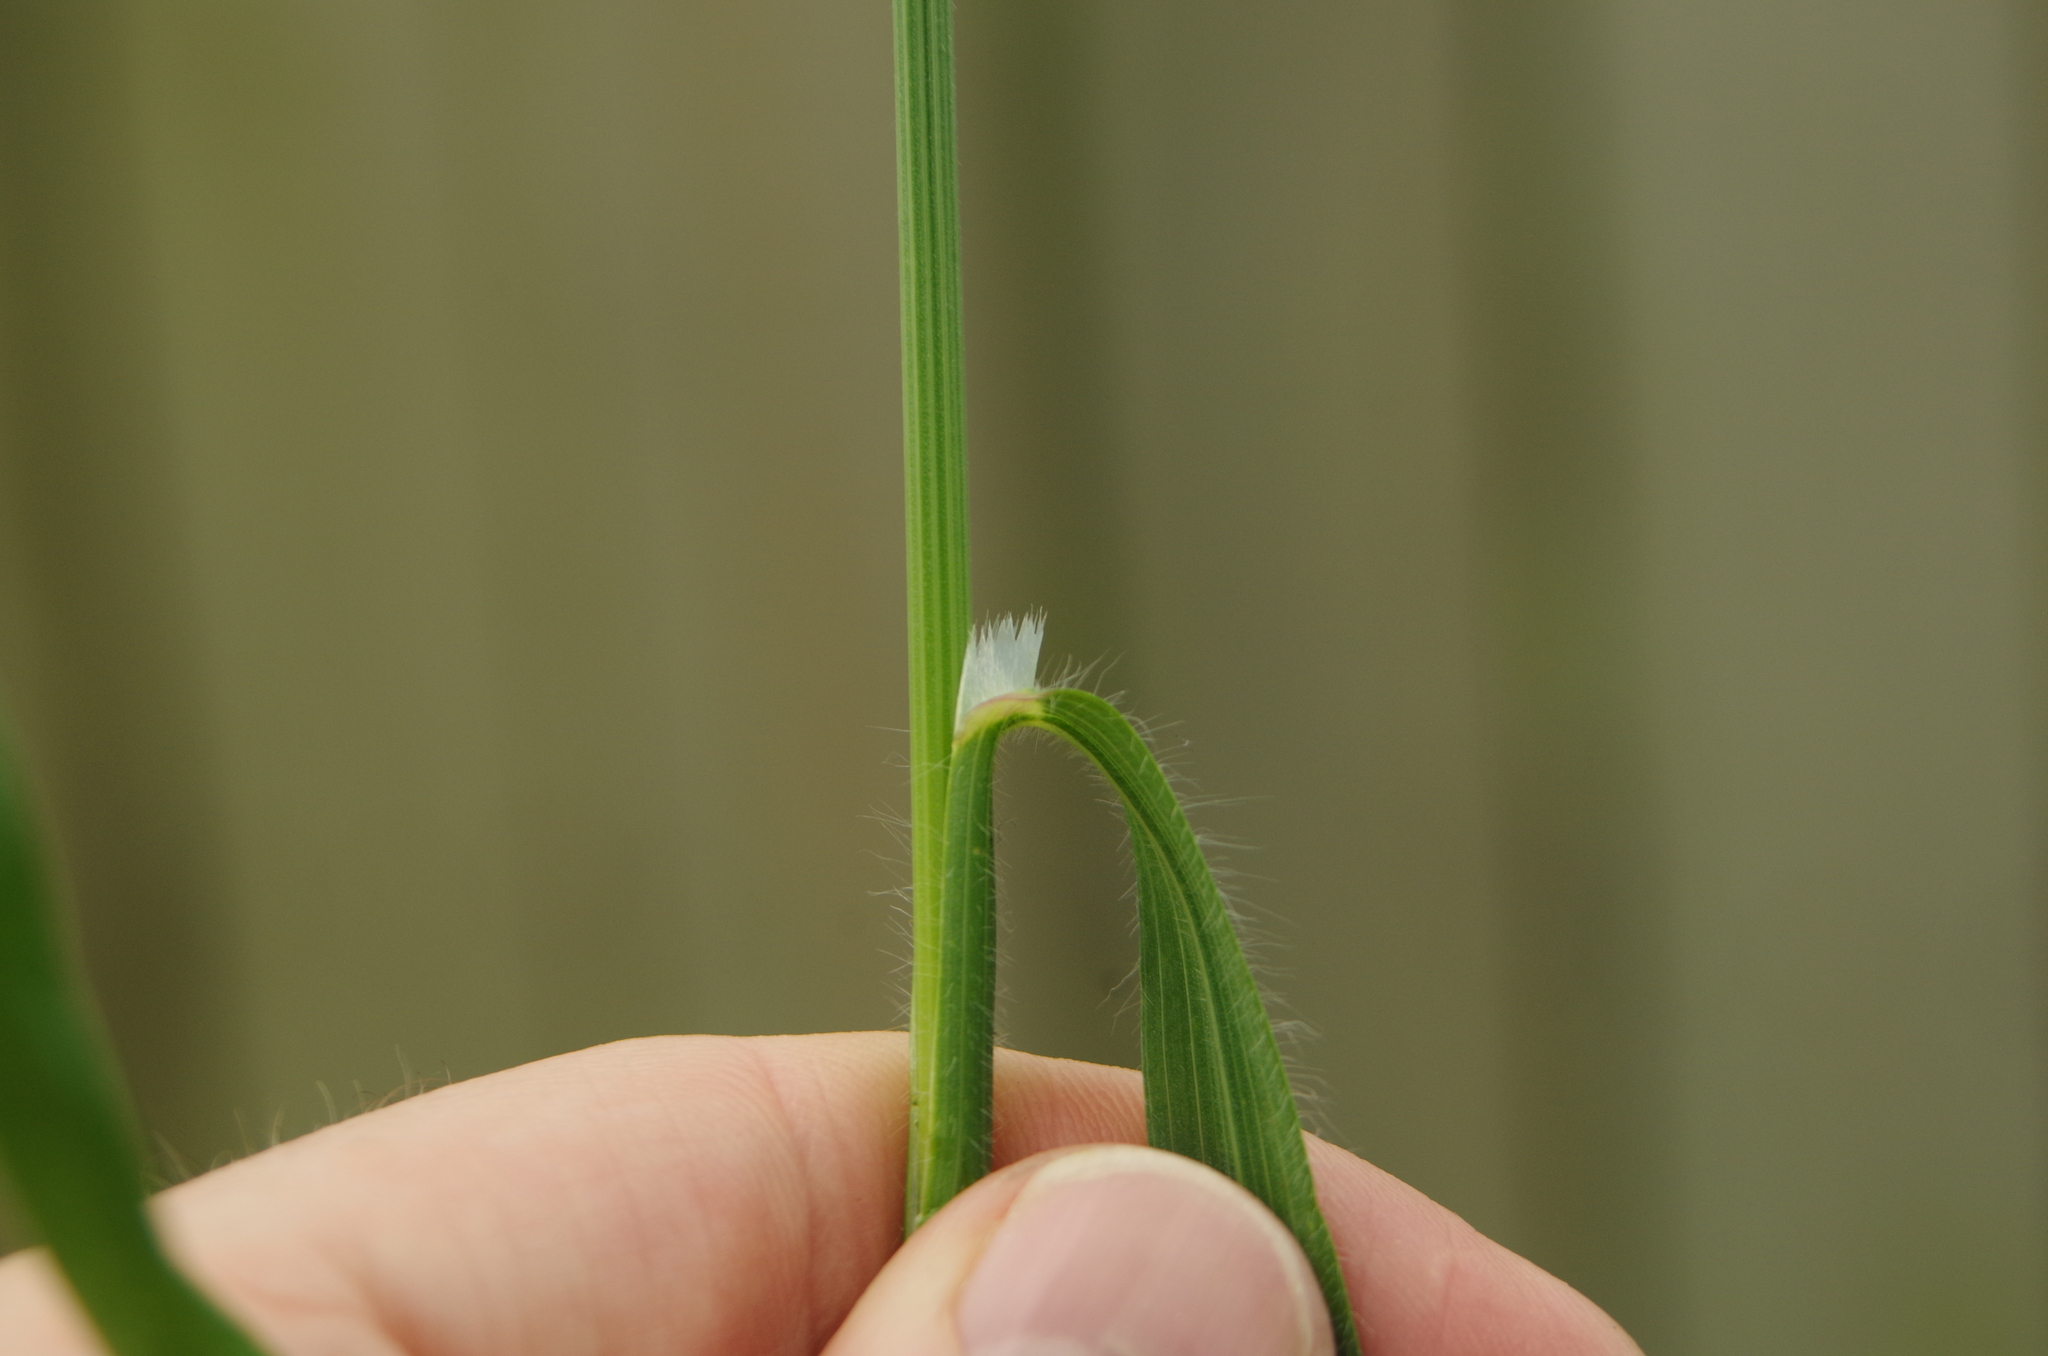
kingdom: Plantae
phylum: Tracheophyta
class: Liliopsida
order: Poales
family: Poaceae
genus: Bromus
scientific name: Bromus diandrus
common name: Ripgut brome
